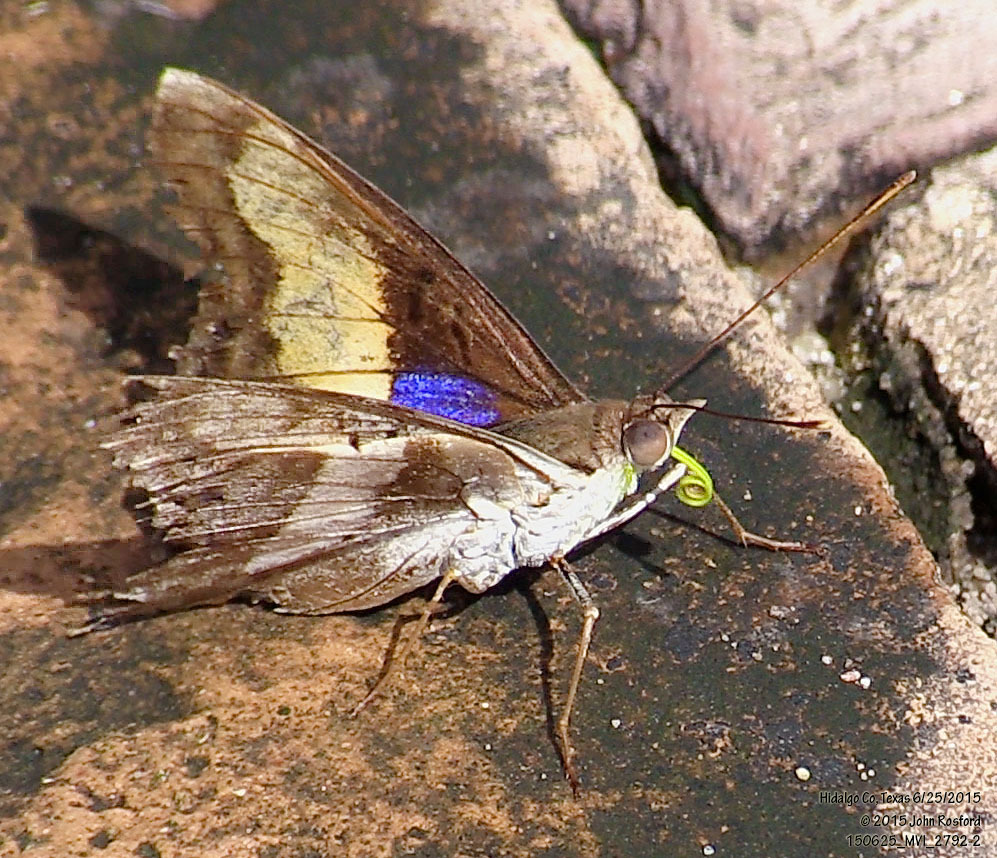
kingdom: Animalia
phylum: Arthropoda
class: Insecta
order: Lepidoptera
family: Nymphalidae
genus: Doxocopa
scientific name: Doxocopa laure
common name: Silver emperor
